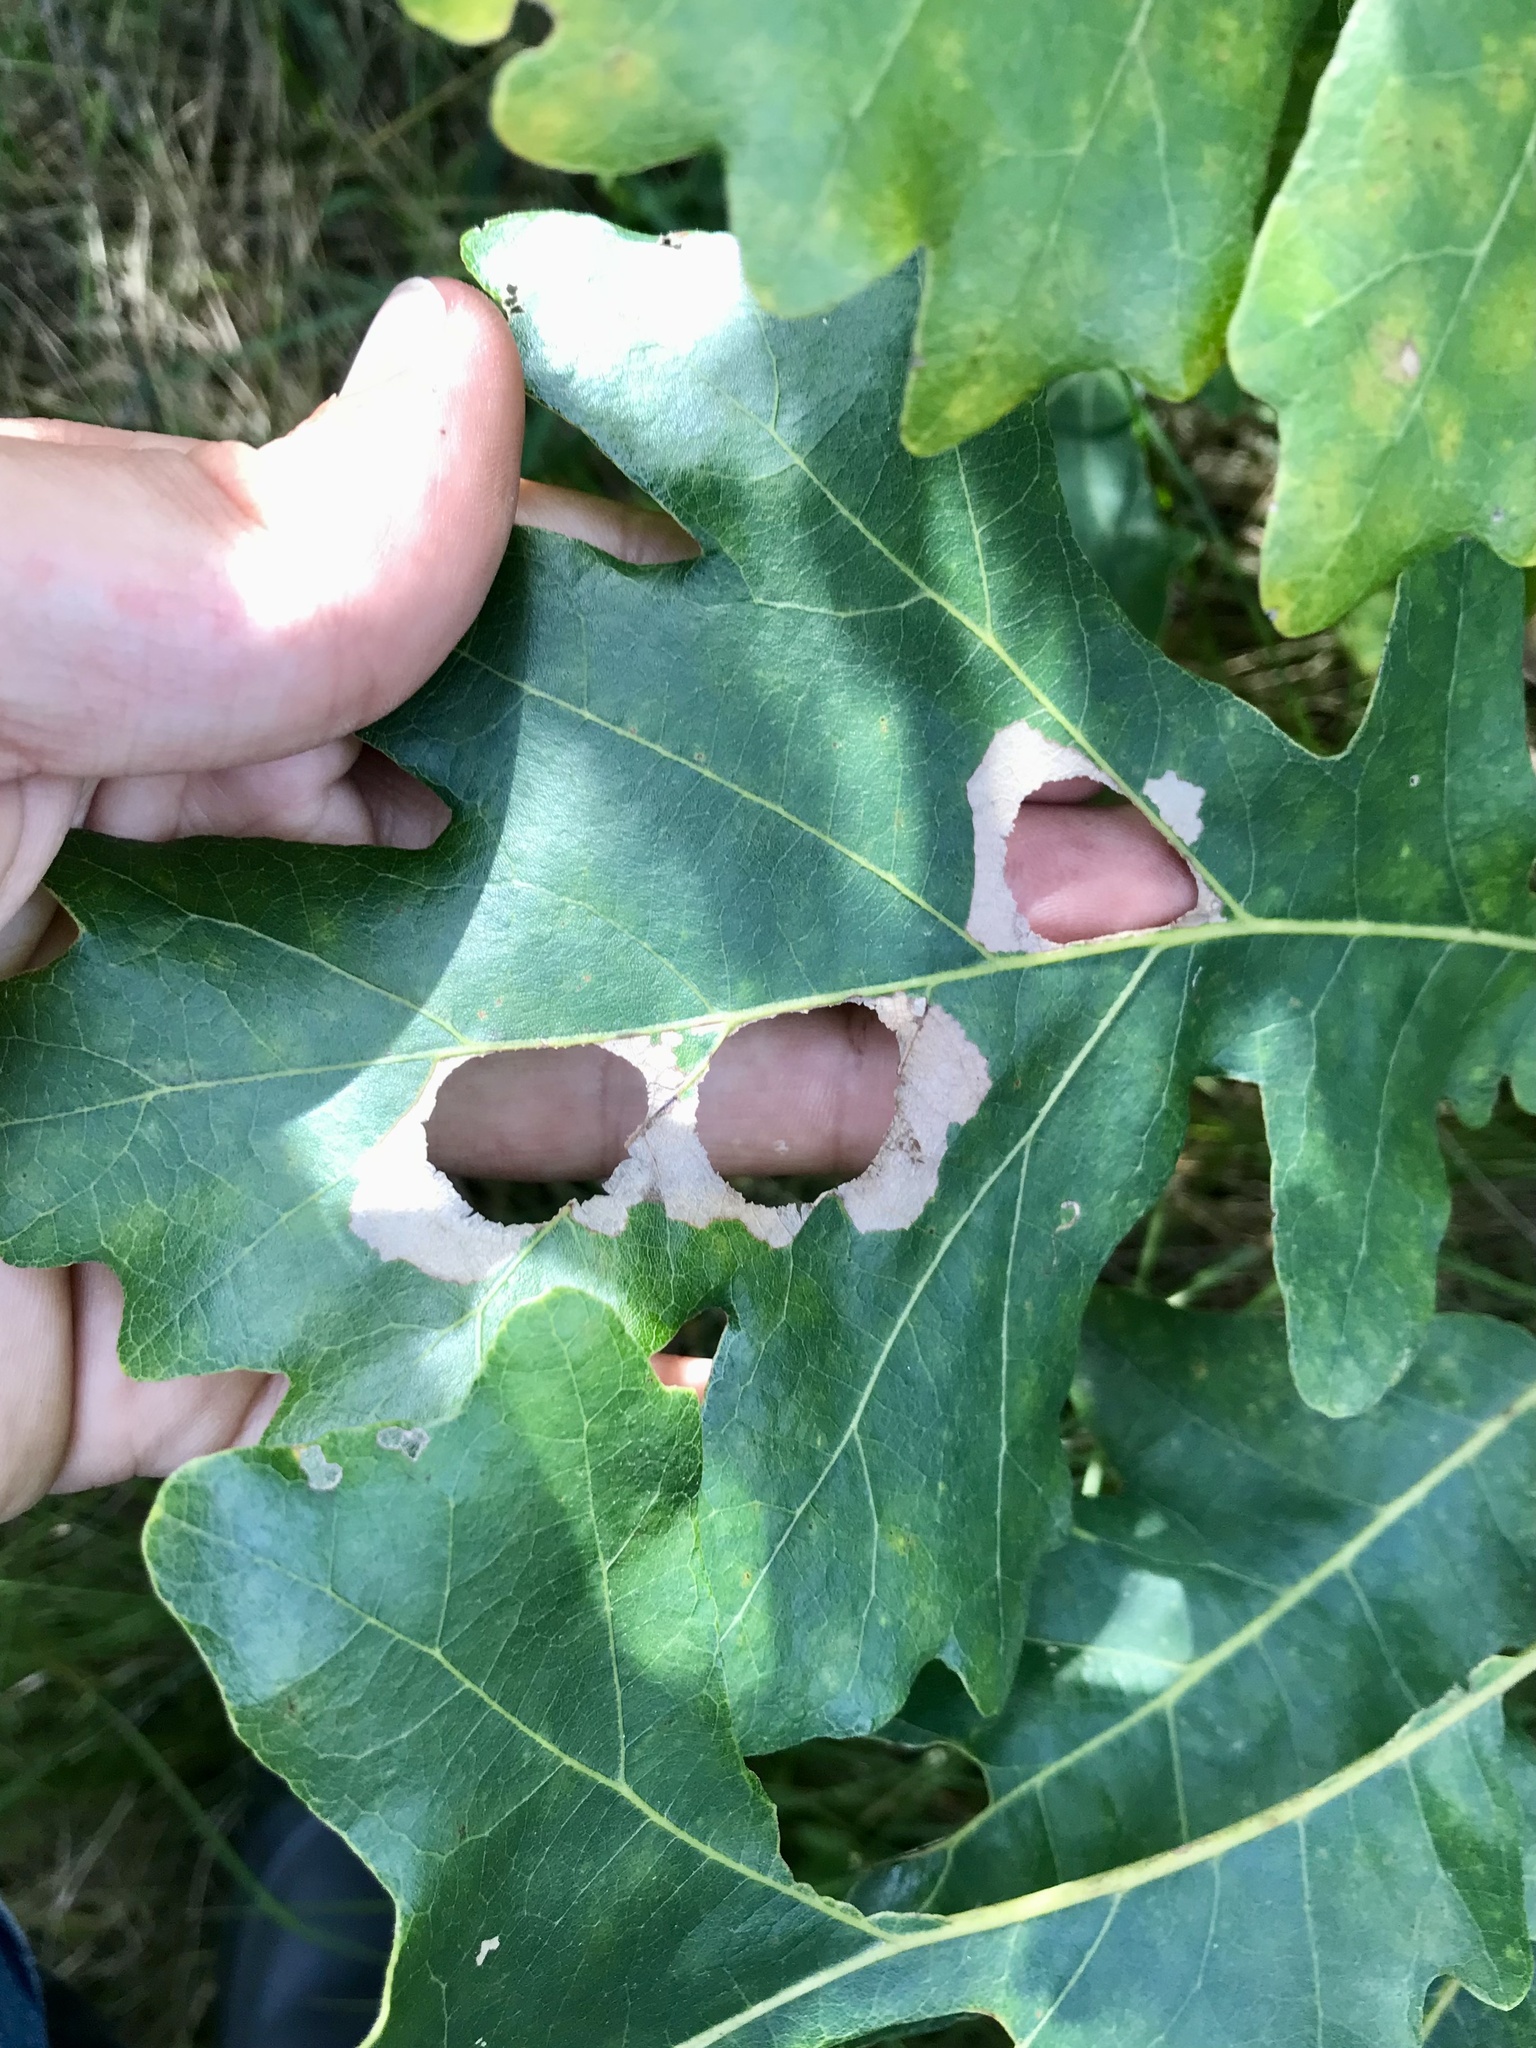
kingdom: Animalia
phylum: Arthropoda
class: Insecta
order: Lepidoptera
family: Depressariidae
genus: Menesta
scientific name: Menesta melanella
